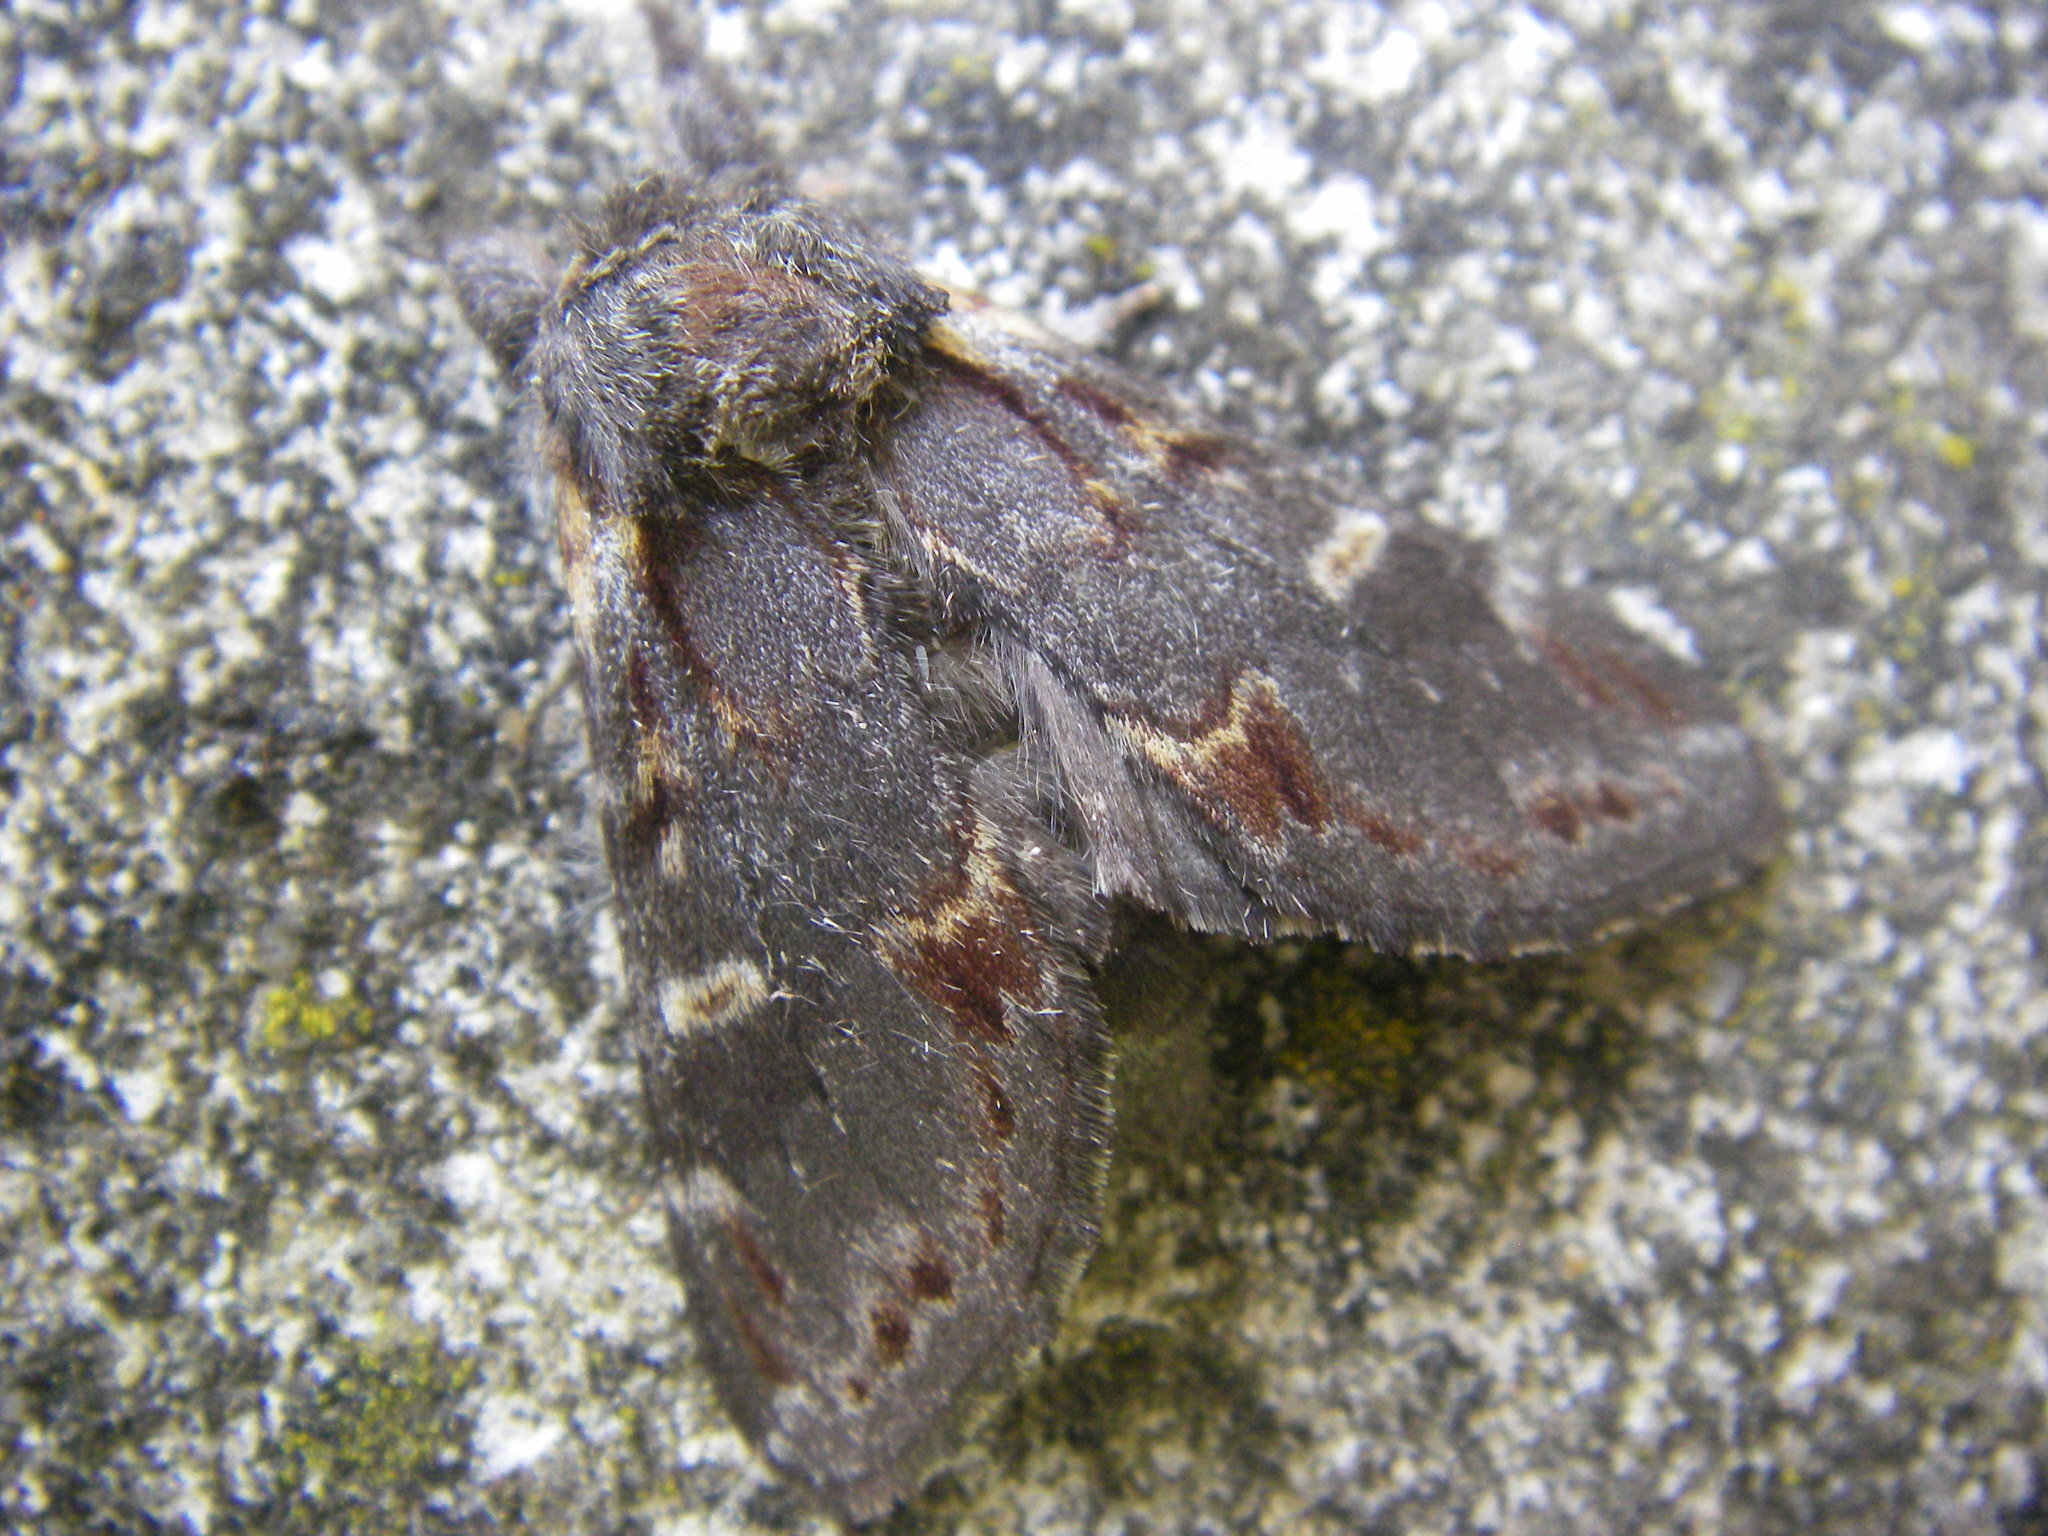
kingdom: Animalia
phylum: Arthropoda
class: Insecta
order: Lepidoptera
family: Notodontidae
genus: Notodonta
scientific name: Notodonta dromedarius
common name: Iron prominent
